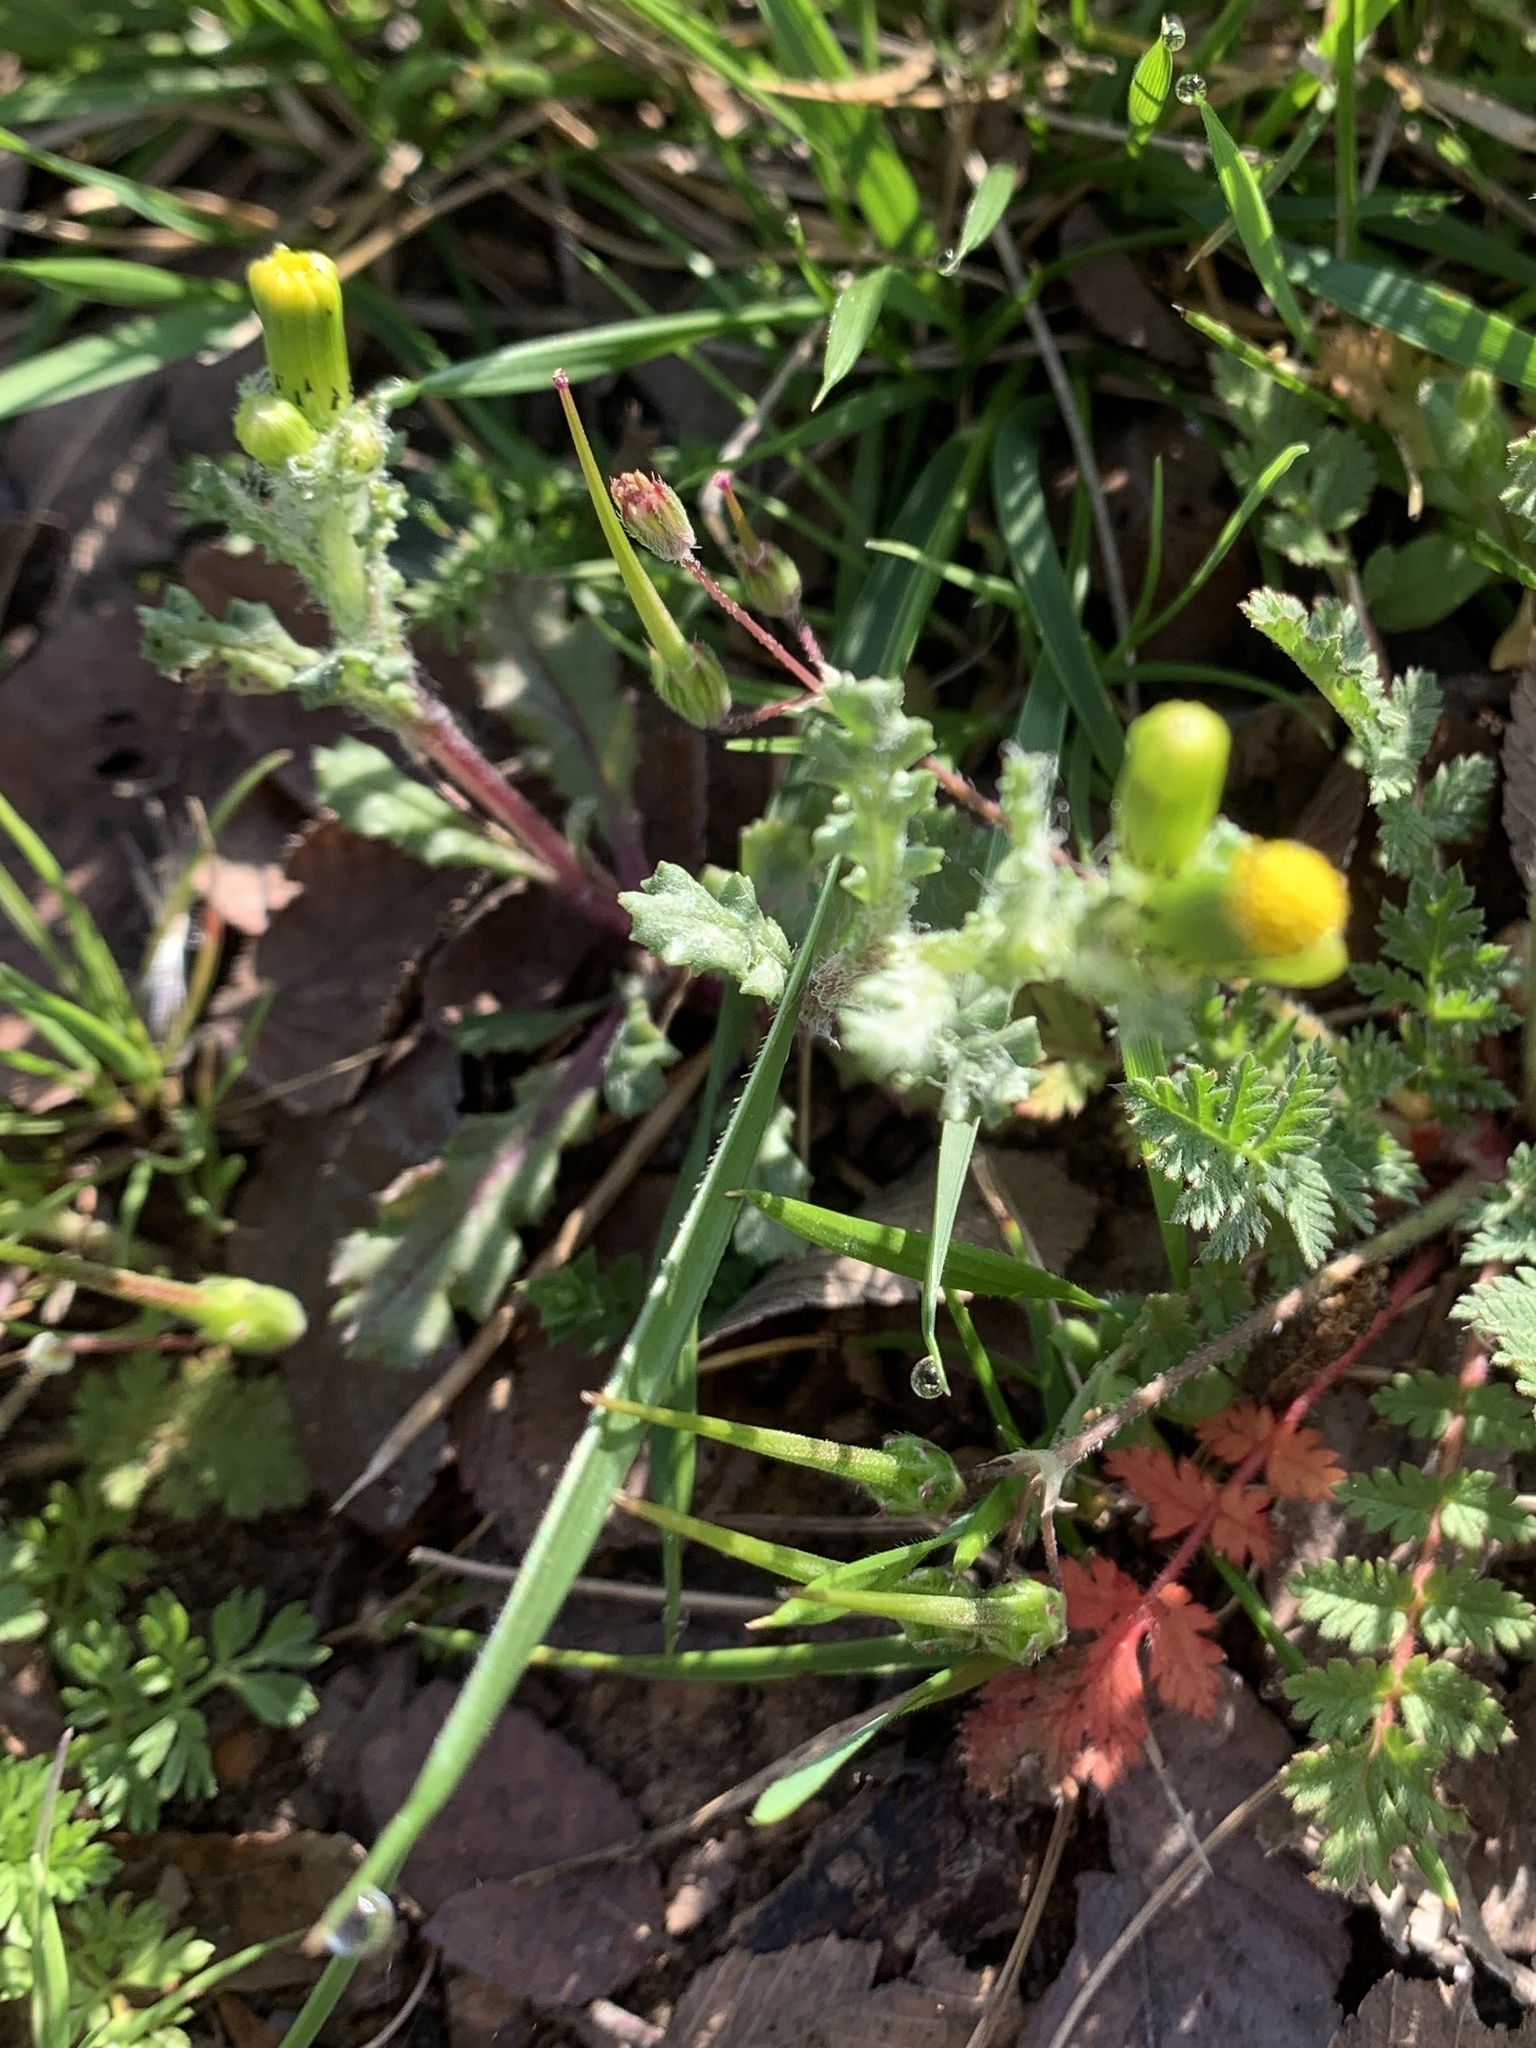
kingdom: Plantae
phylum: Tracheophyta
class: Magnoliopsida
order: Asterales
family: Asteraceae
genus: Senecio
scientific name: Senecio vulgaris
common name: Old-man-in-the-spring
